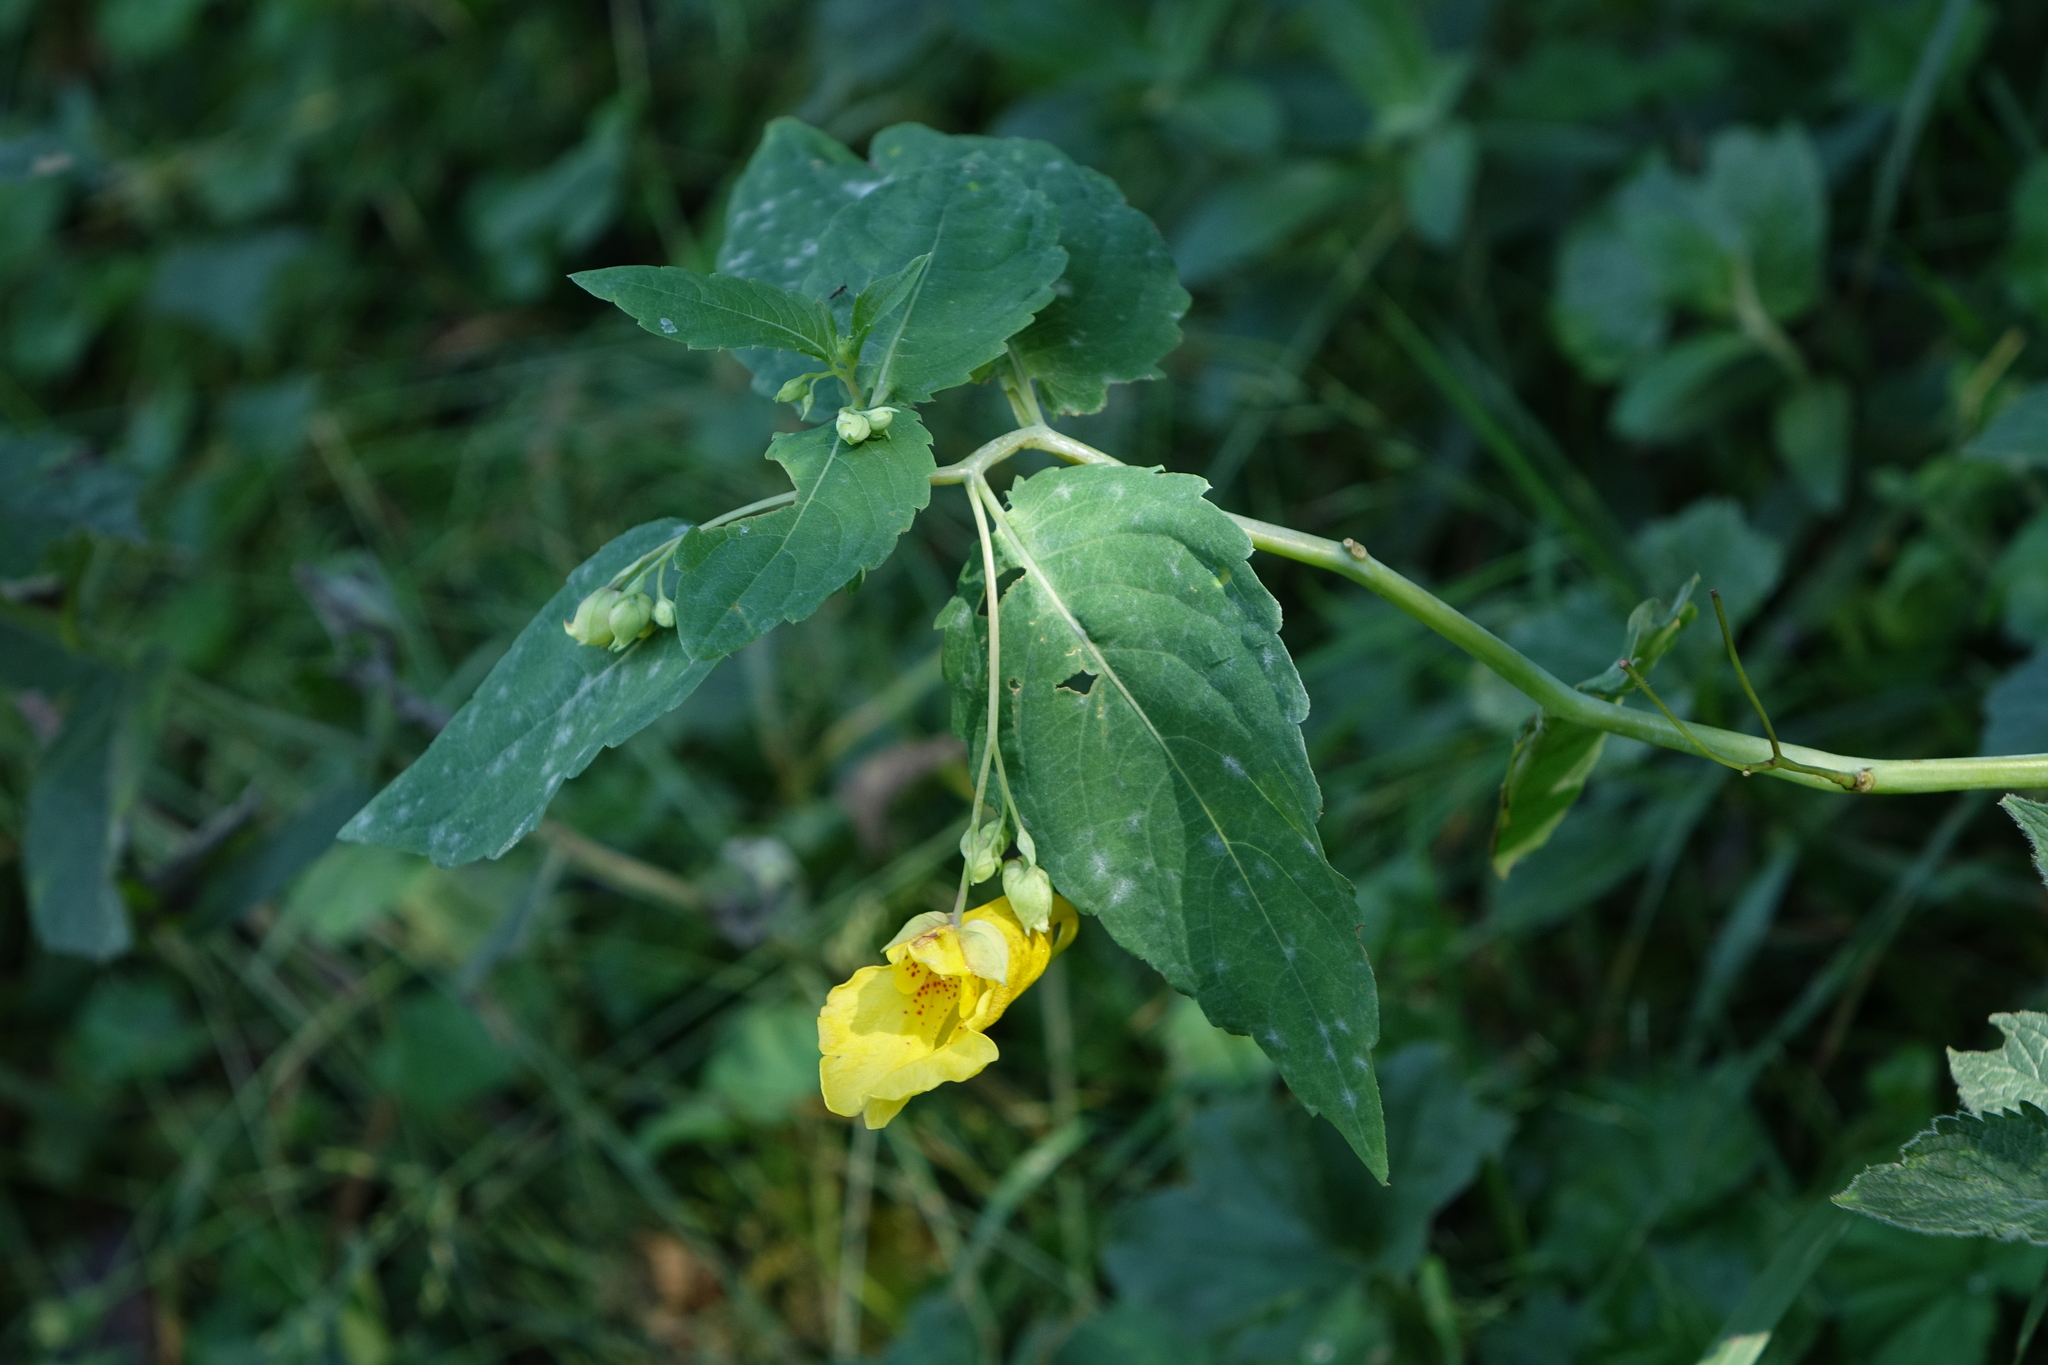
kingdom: Plantae
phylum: Tracheophyta
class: Magnoliopsida
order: Ericales
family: Balsaminaceae
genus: Impatiens
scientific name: Impatiens noli-tangere
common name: Touch-me-not balsam
